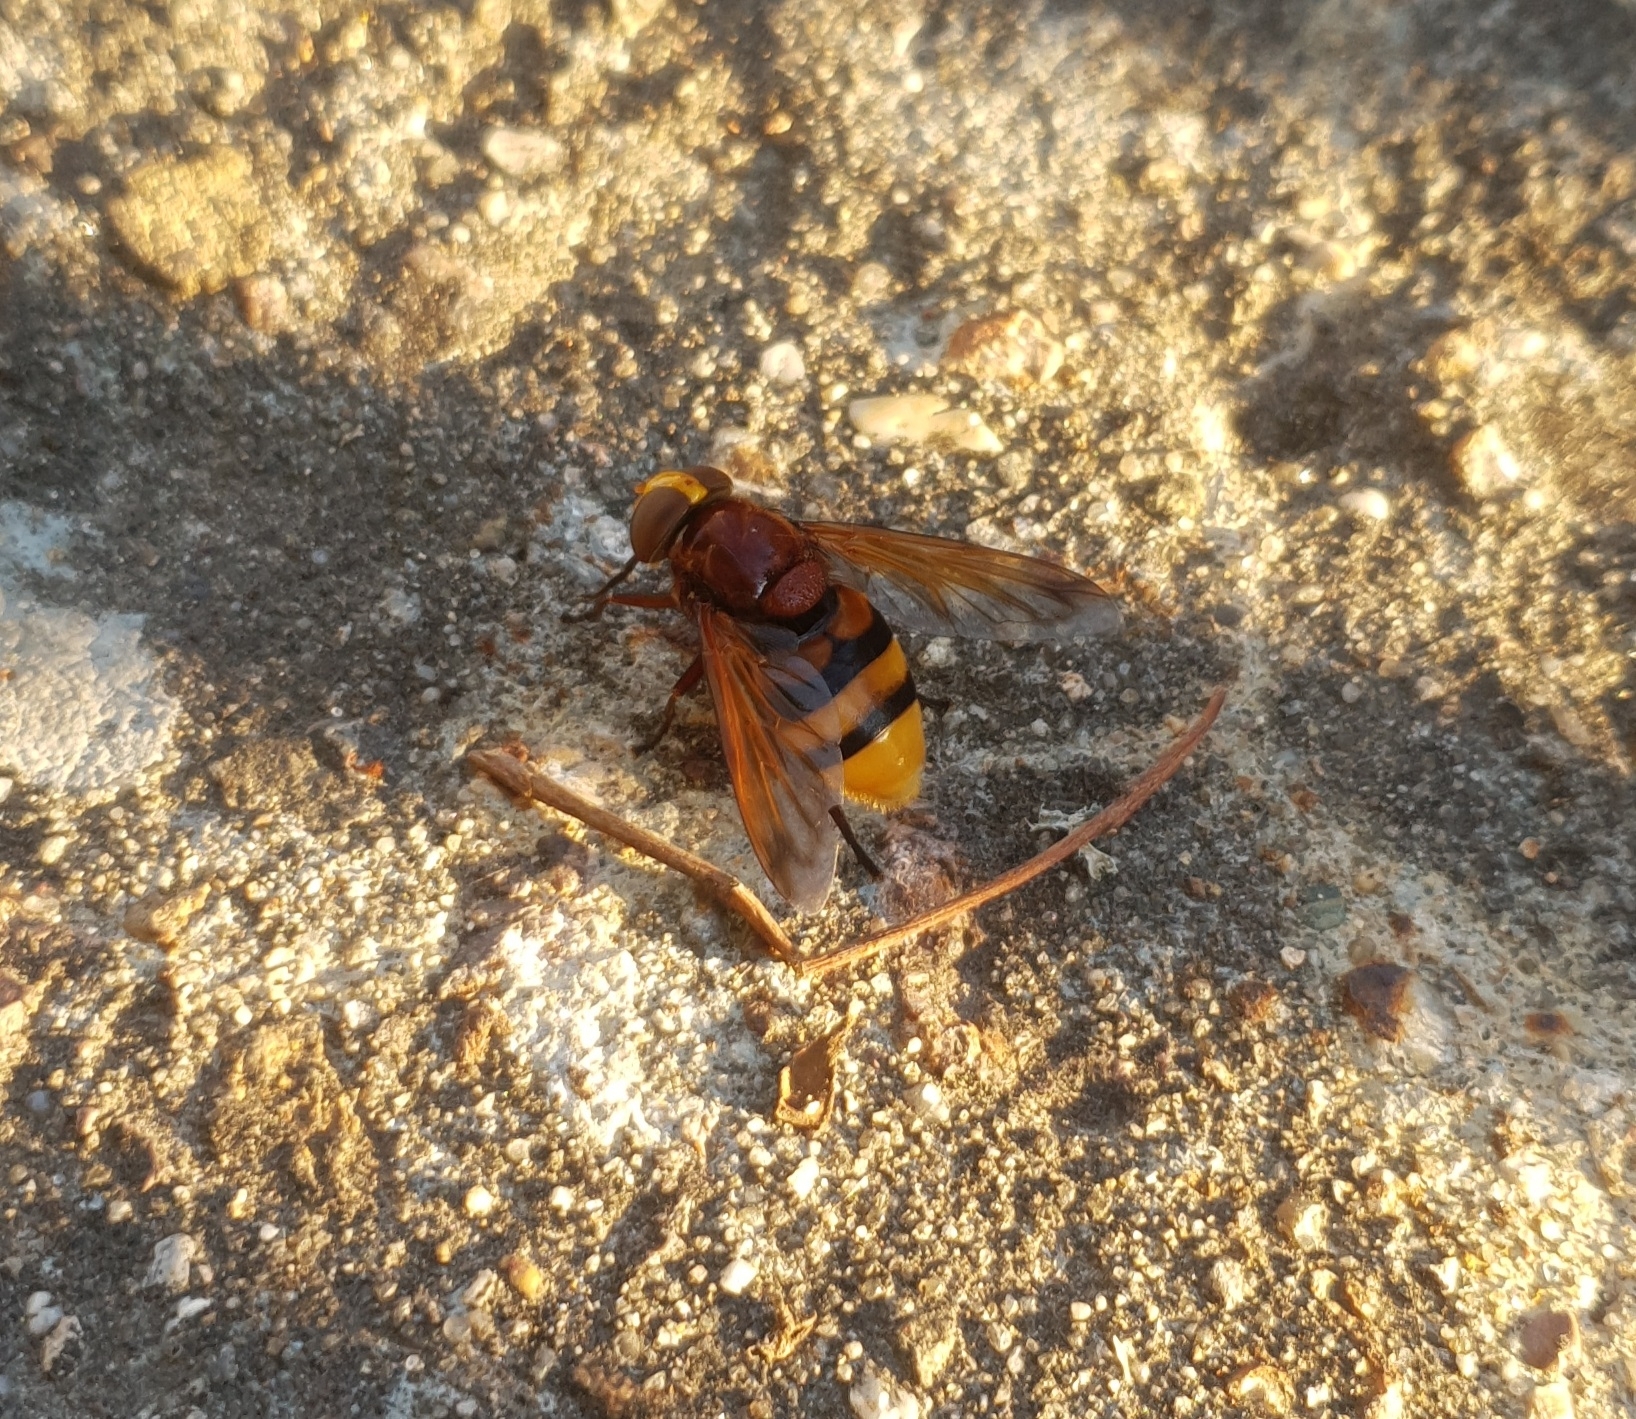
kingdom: Animalia
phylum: Arthropoda
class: Insecta
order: Diptera
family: Syrphidae
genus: Volucella
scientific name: Volucella zonaria
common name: Hornet hoverfly
